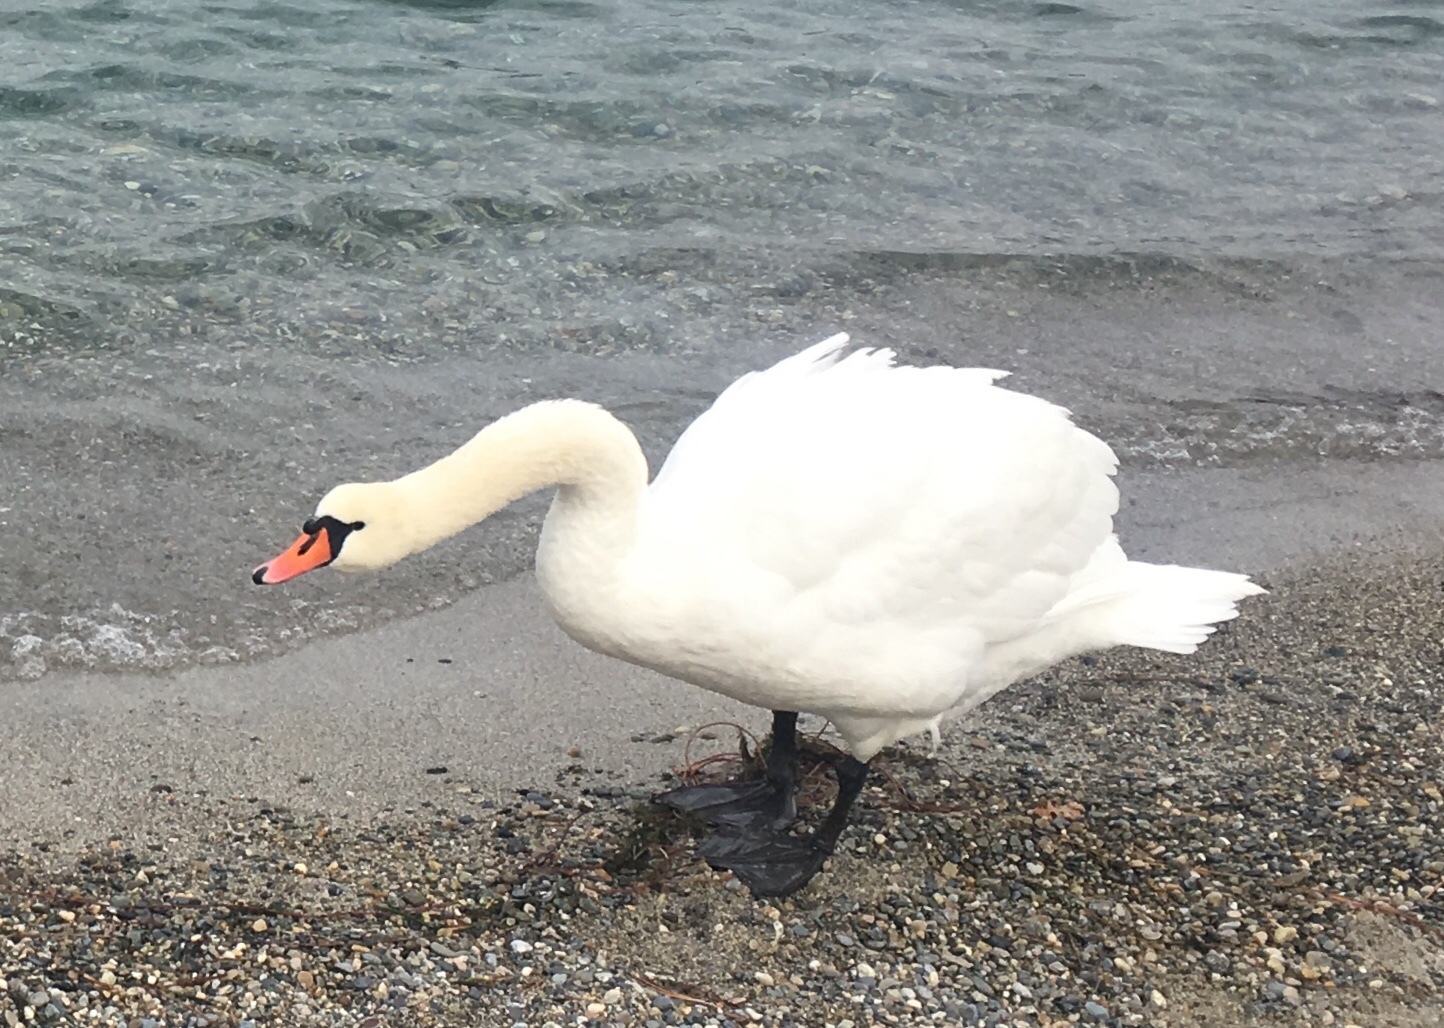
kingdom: Animalia
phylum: Chordata
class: Aves
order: Anseriformes
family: Anatidae
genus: Cygnus
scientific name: Cygnus olor
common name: Mute swan
